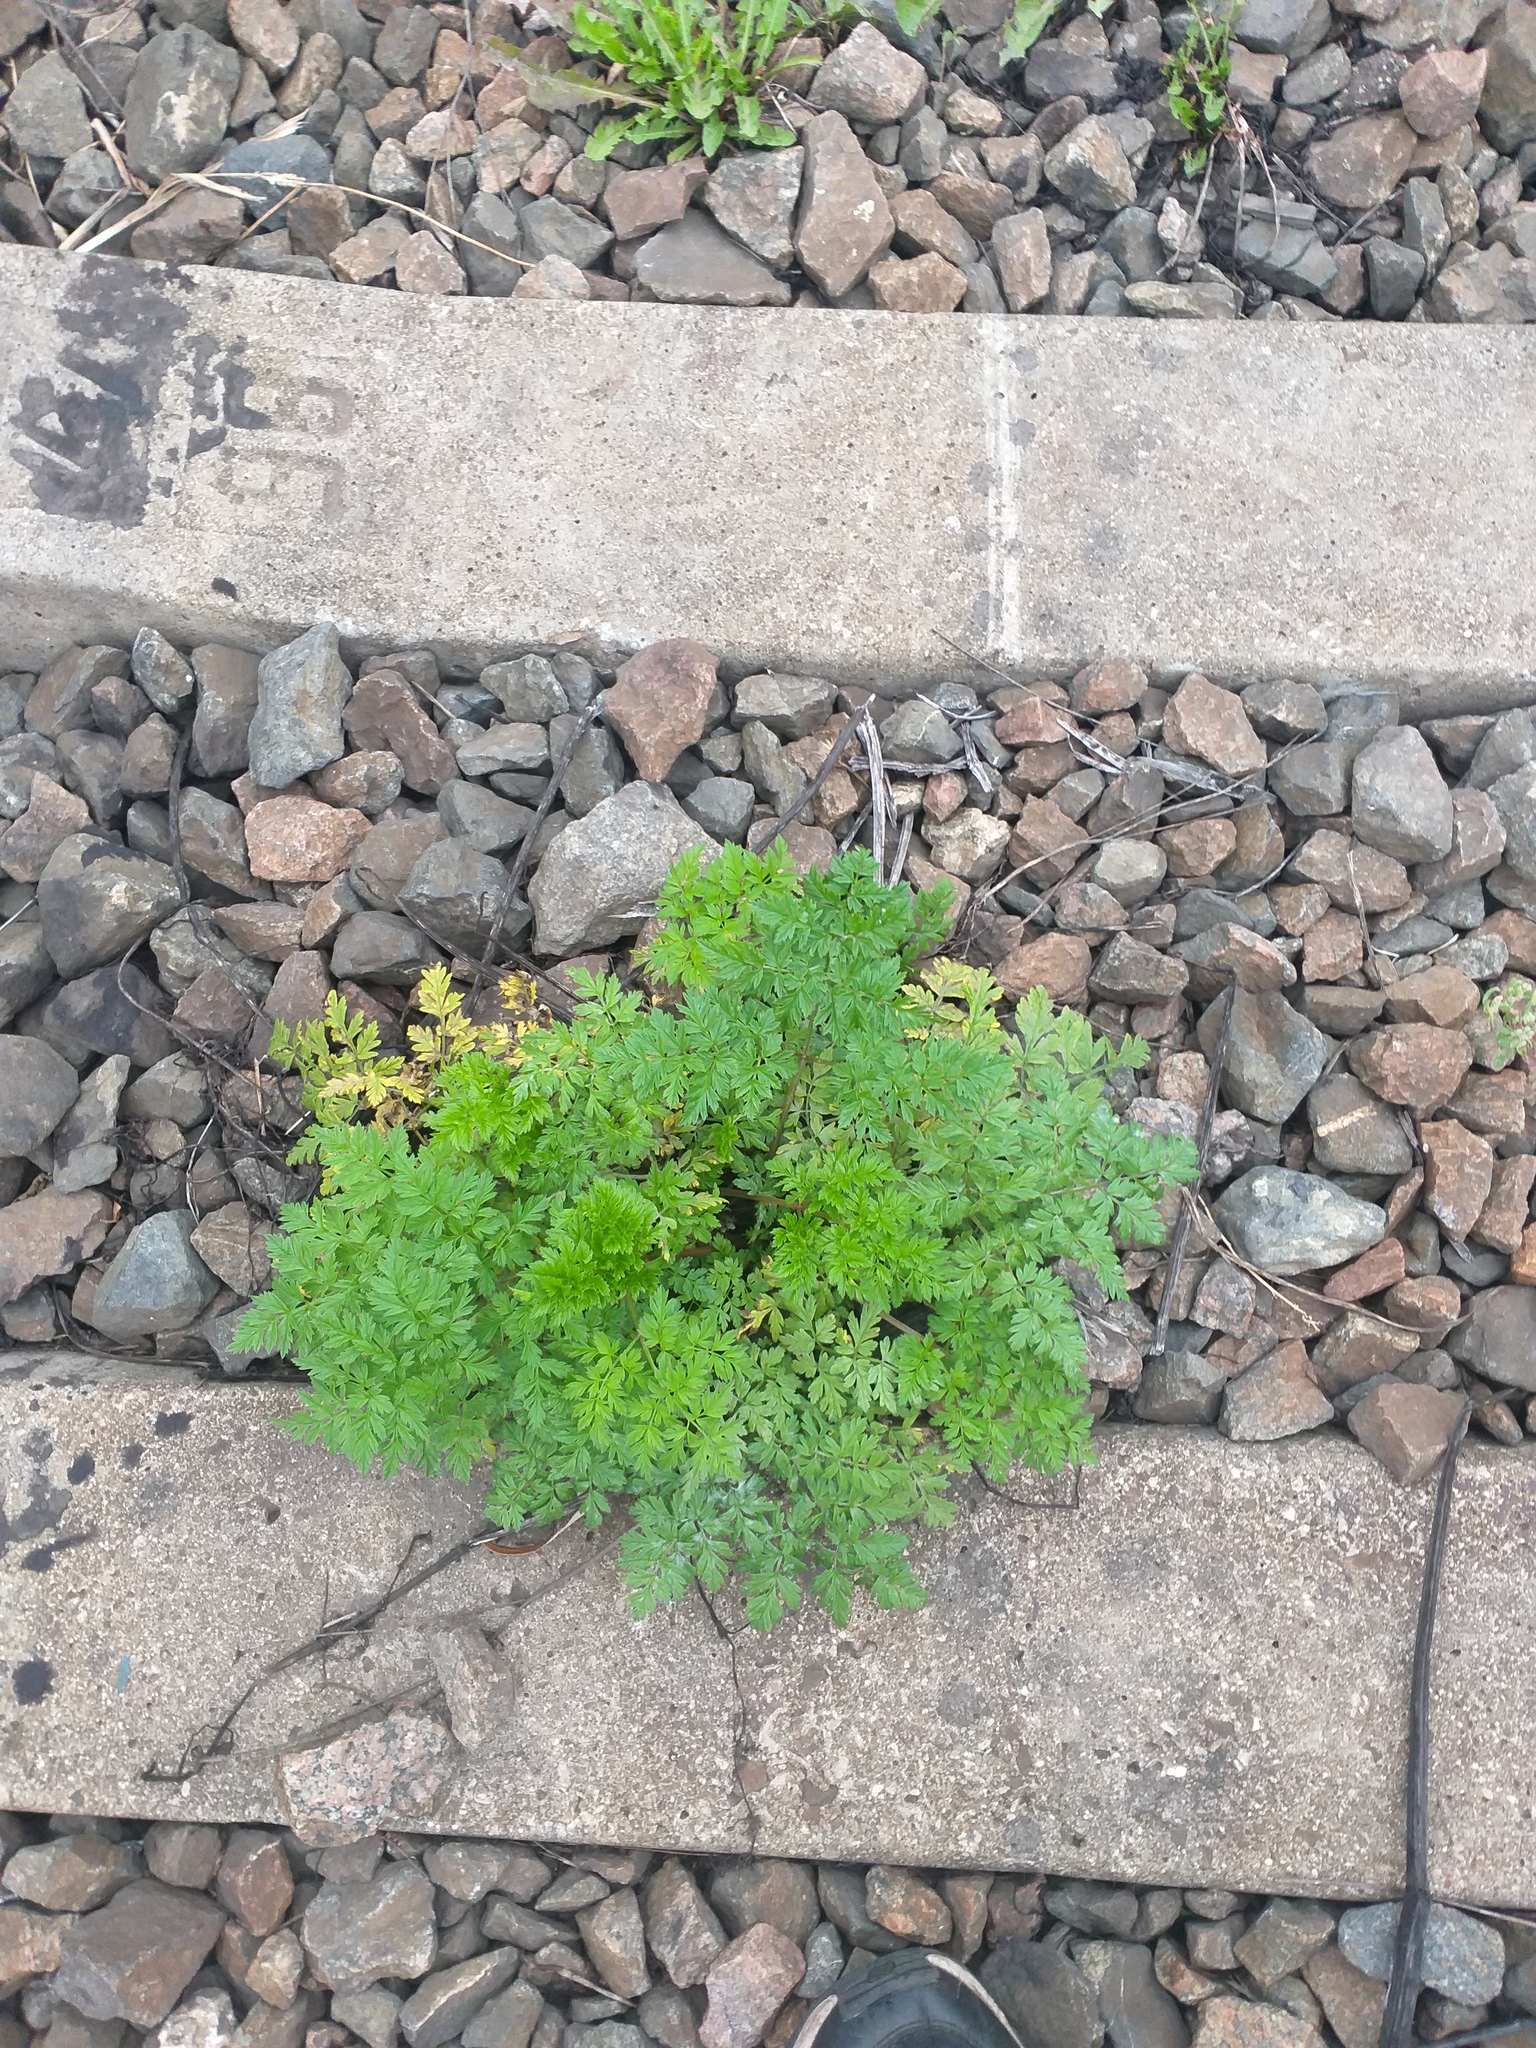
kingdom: Plantae
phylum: Tracheophyta
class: Magnoliopsida
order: Apiales
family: Apiaceae
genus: Anthriscus
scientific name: Anthriscus sylvestris
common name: Cow parsley
